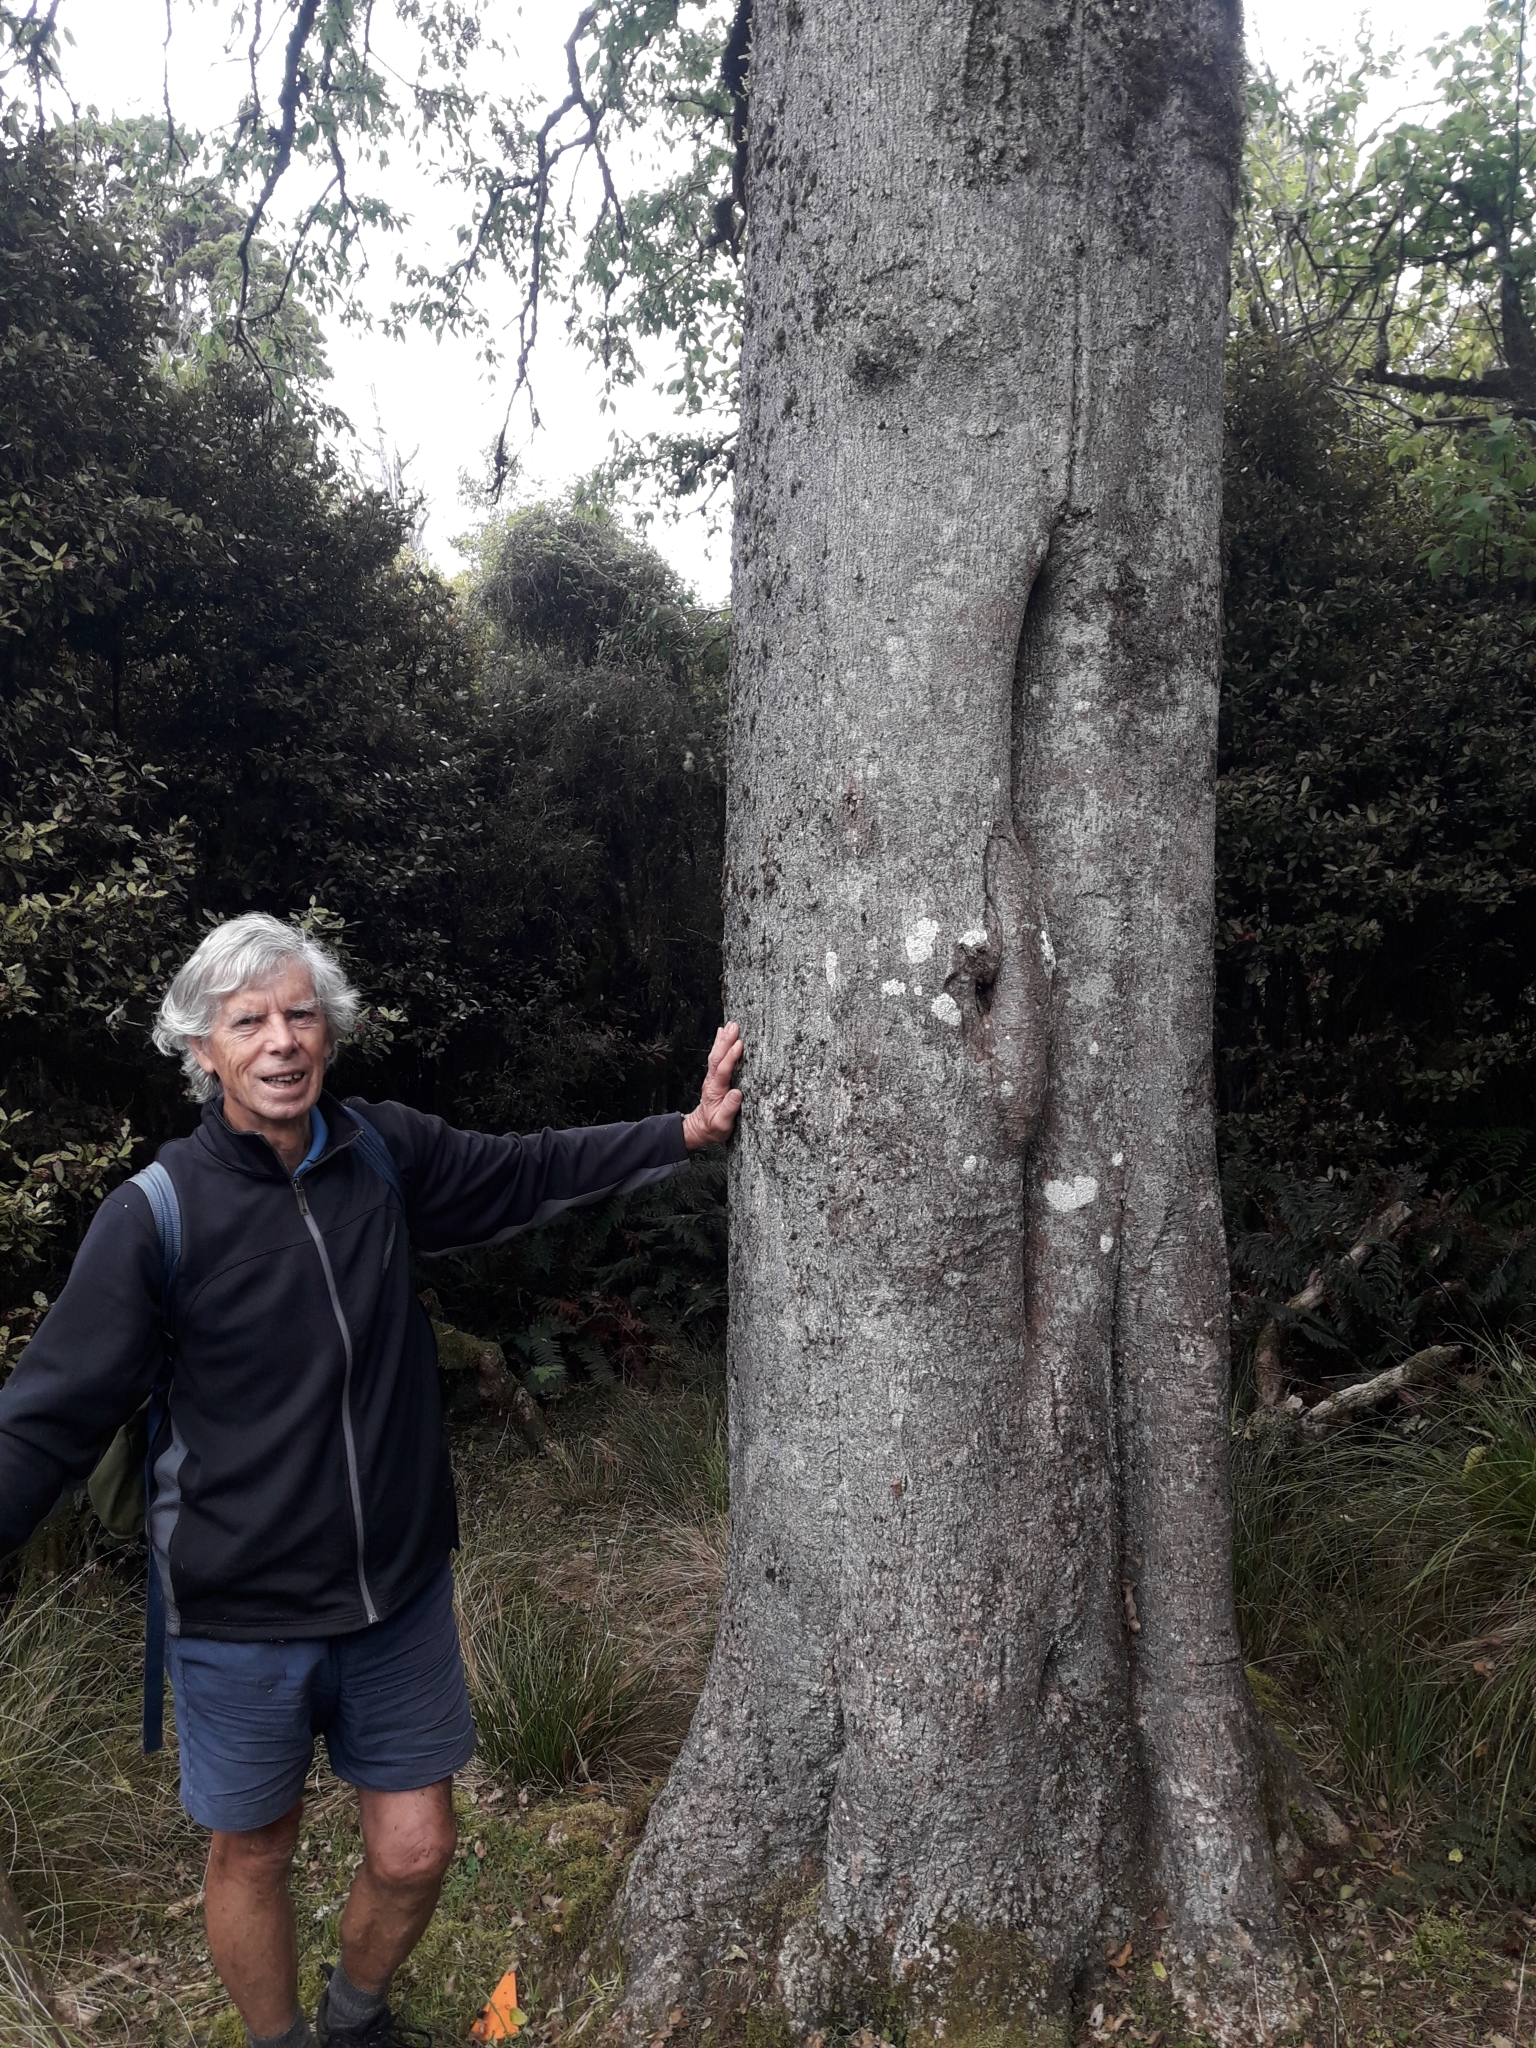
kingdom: Plantae
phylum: Tracheophyta
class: Magnoliopsida
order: Malvales
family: Malvaceae
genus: Plagianthus
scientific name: Plagianthus regius
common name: Manatu
